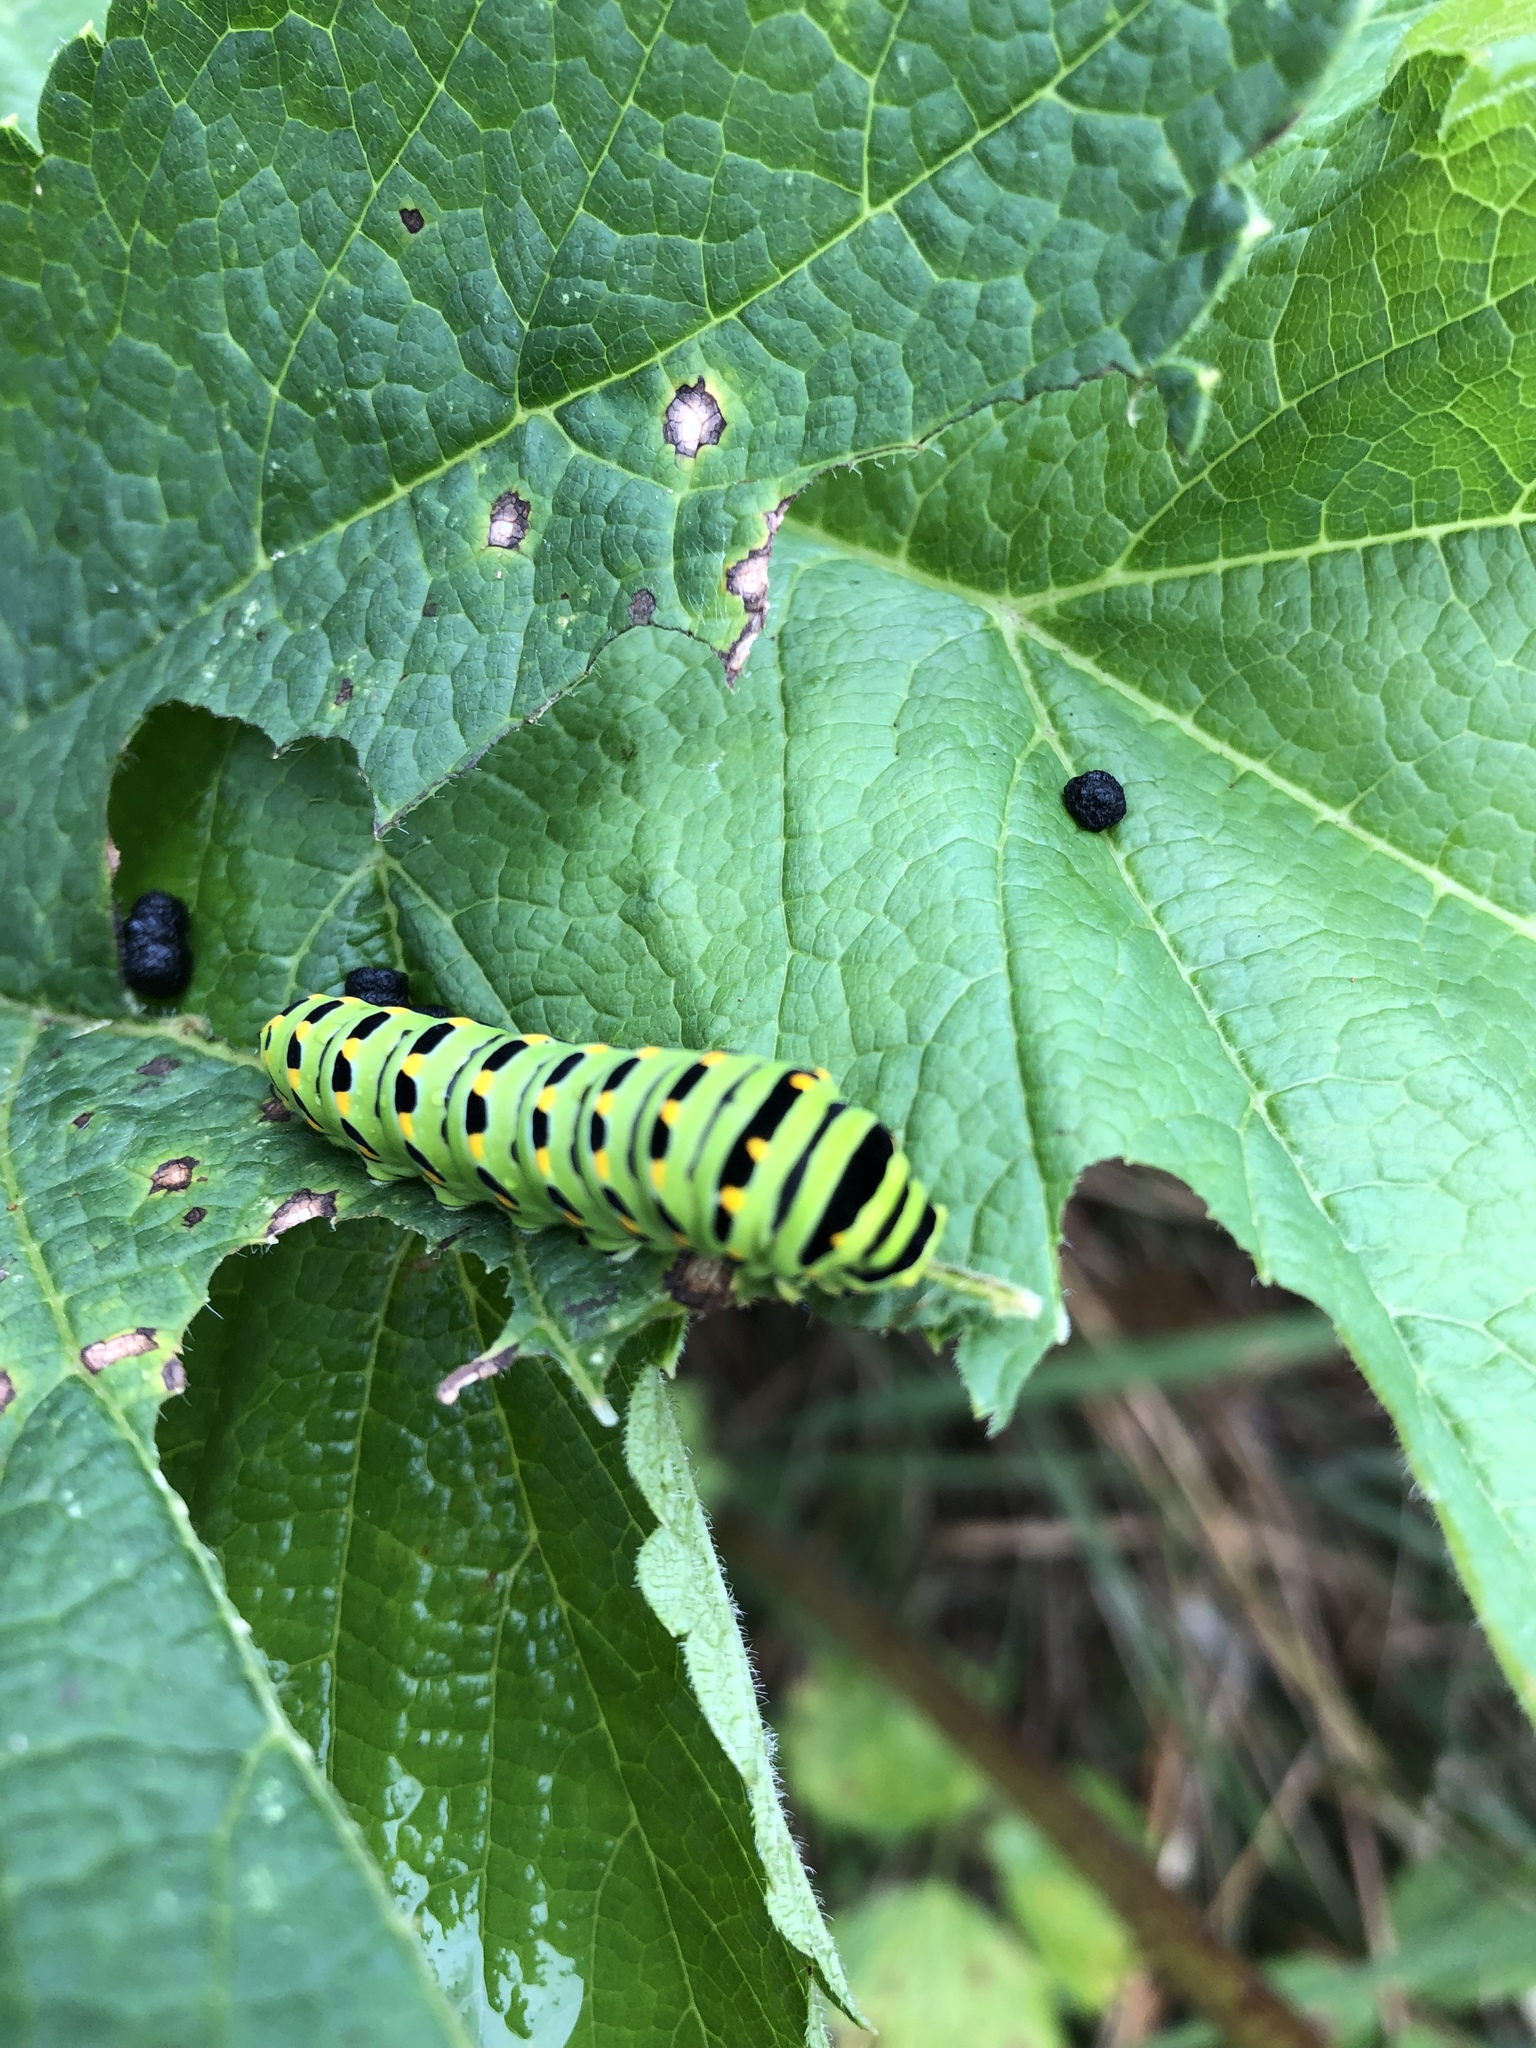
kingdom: Animalia
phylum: Arthropoda
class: Insecta
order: Lepidoptera
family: Papilionidae
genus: Papilio
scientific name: Papilio zelicaon
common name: Anise swallowtail
